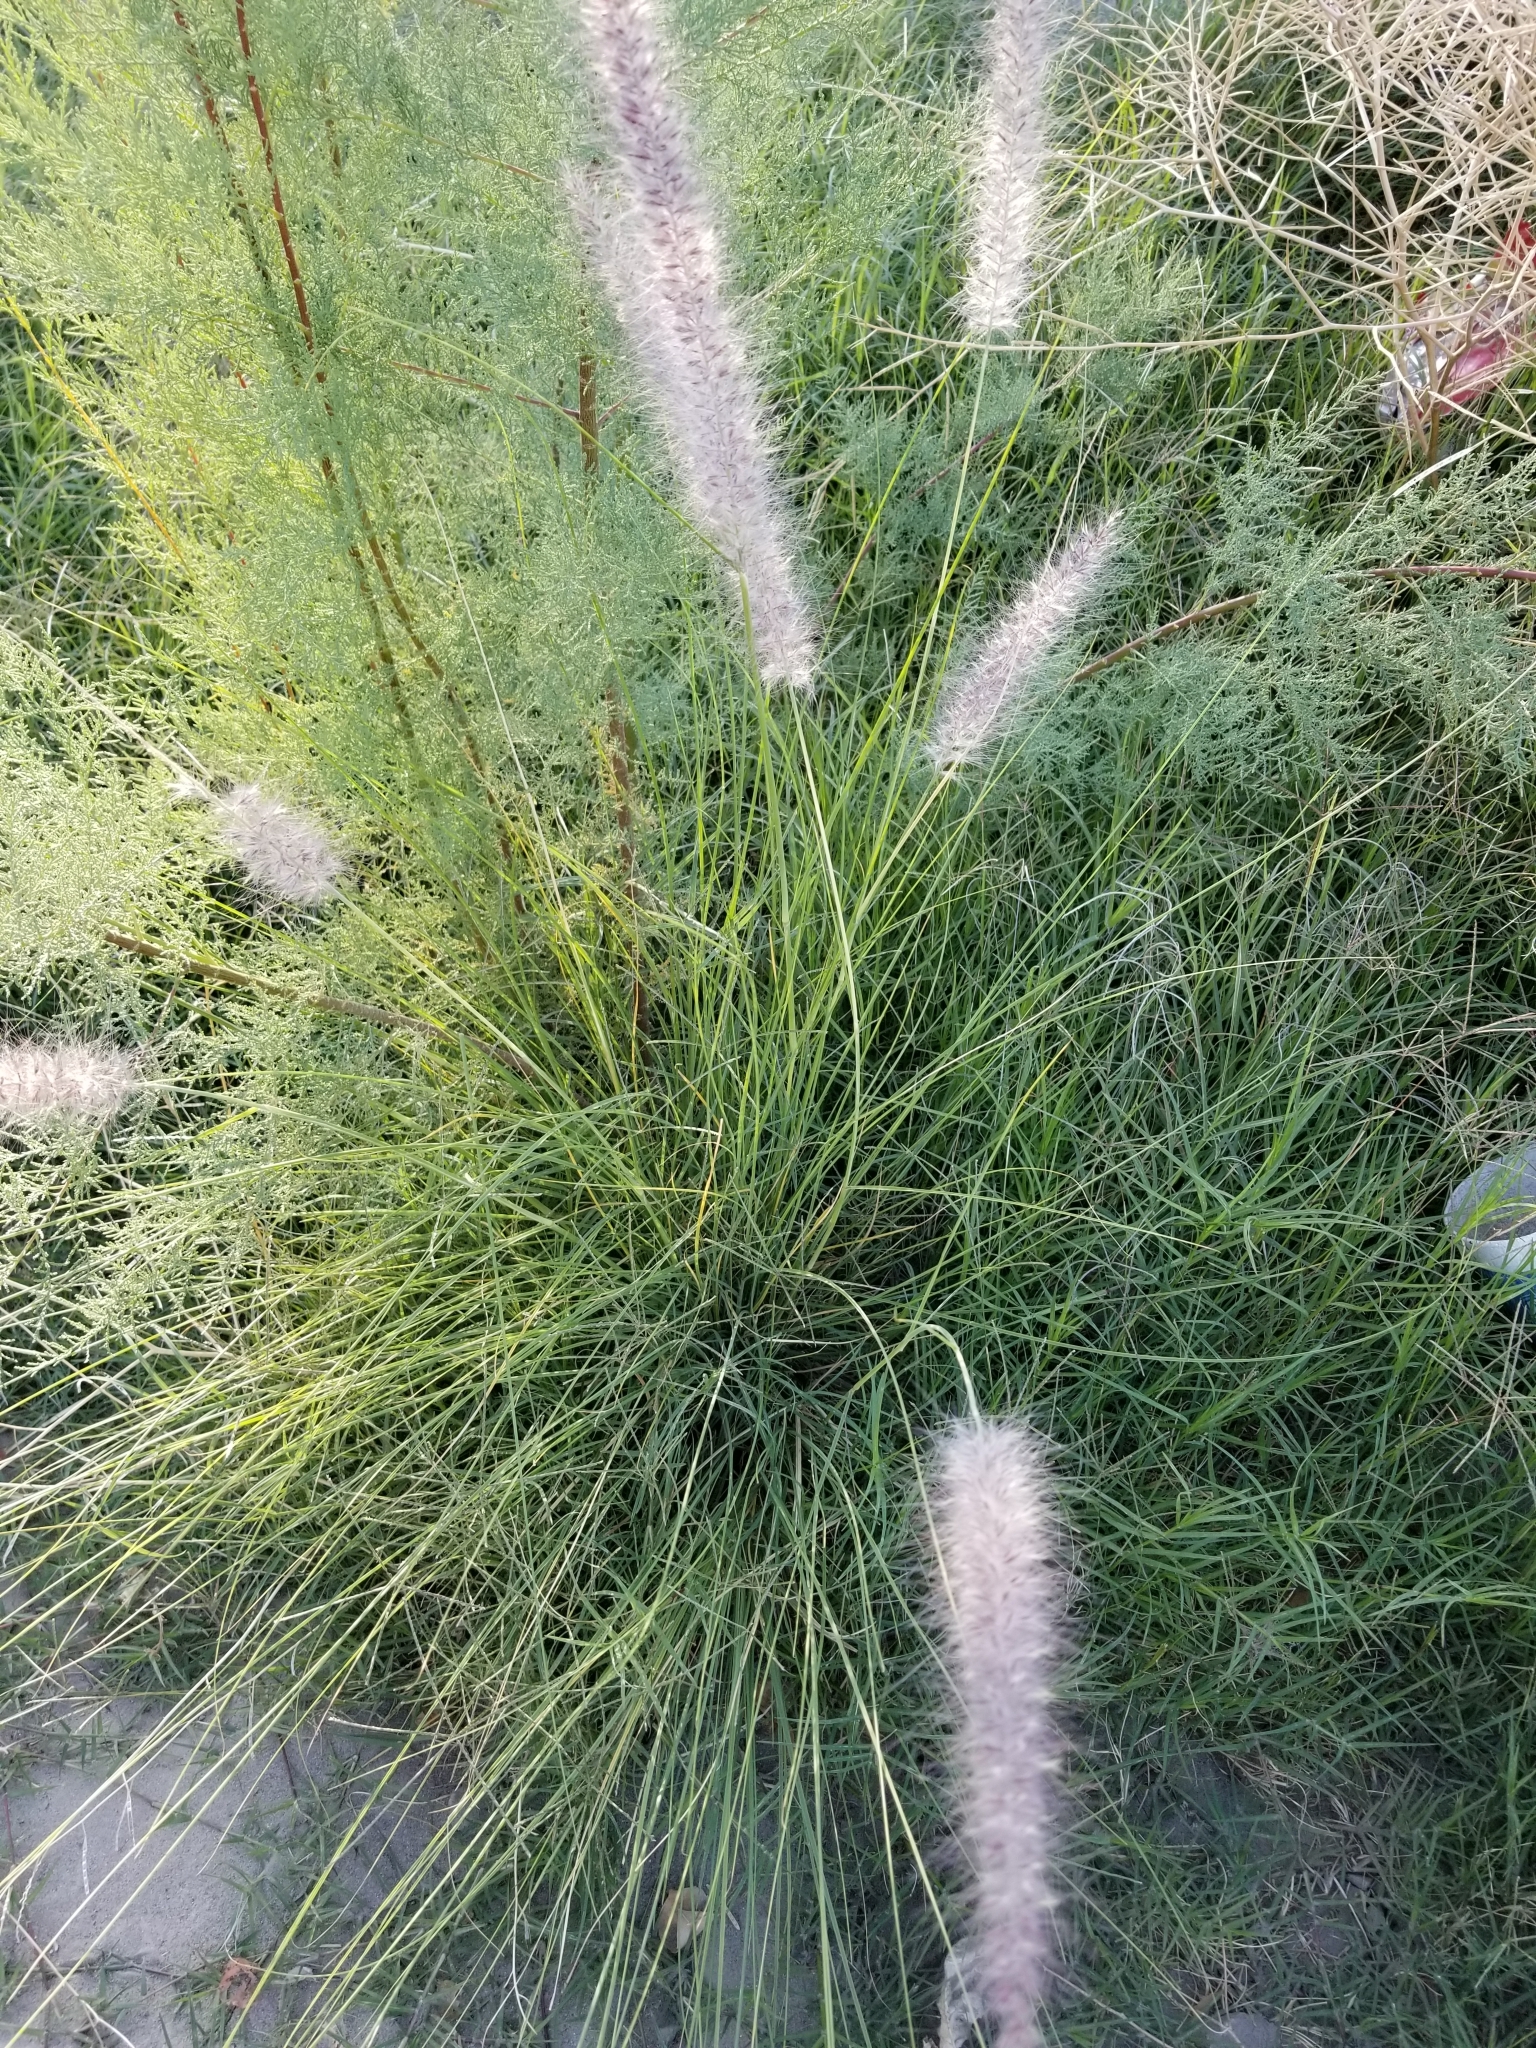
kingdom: Plantae
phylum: Tracheophyta
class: Liliopsida
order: Poales
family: Poaceae
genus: Cenchrus
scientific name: Cenchrus setaceus
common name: Crimson fountaingrass
